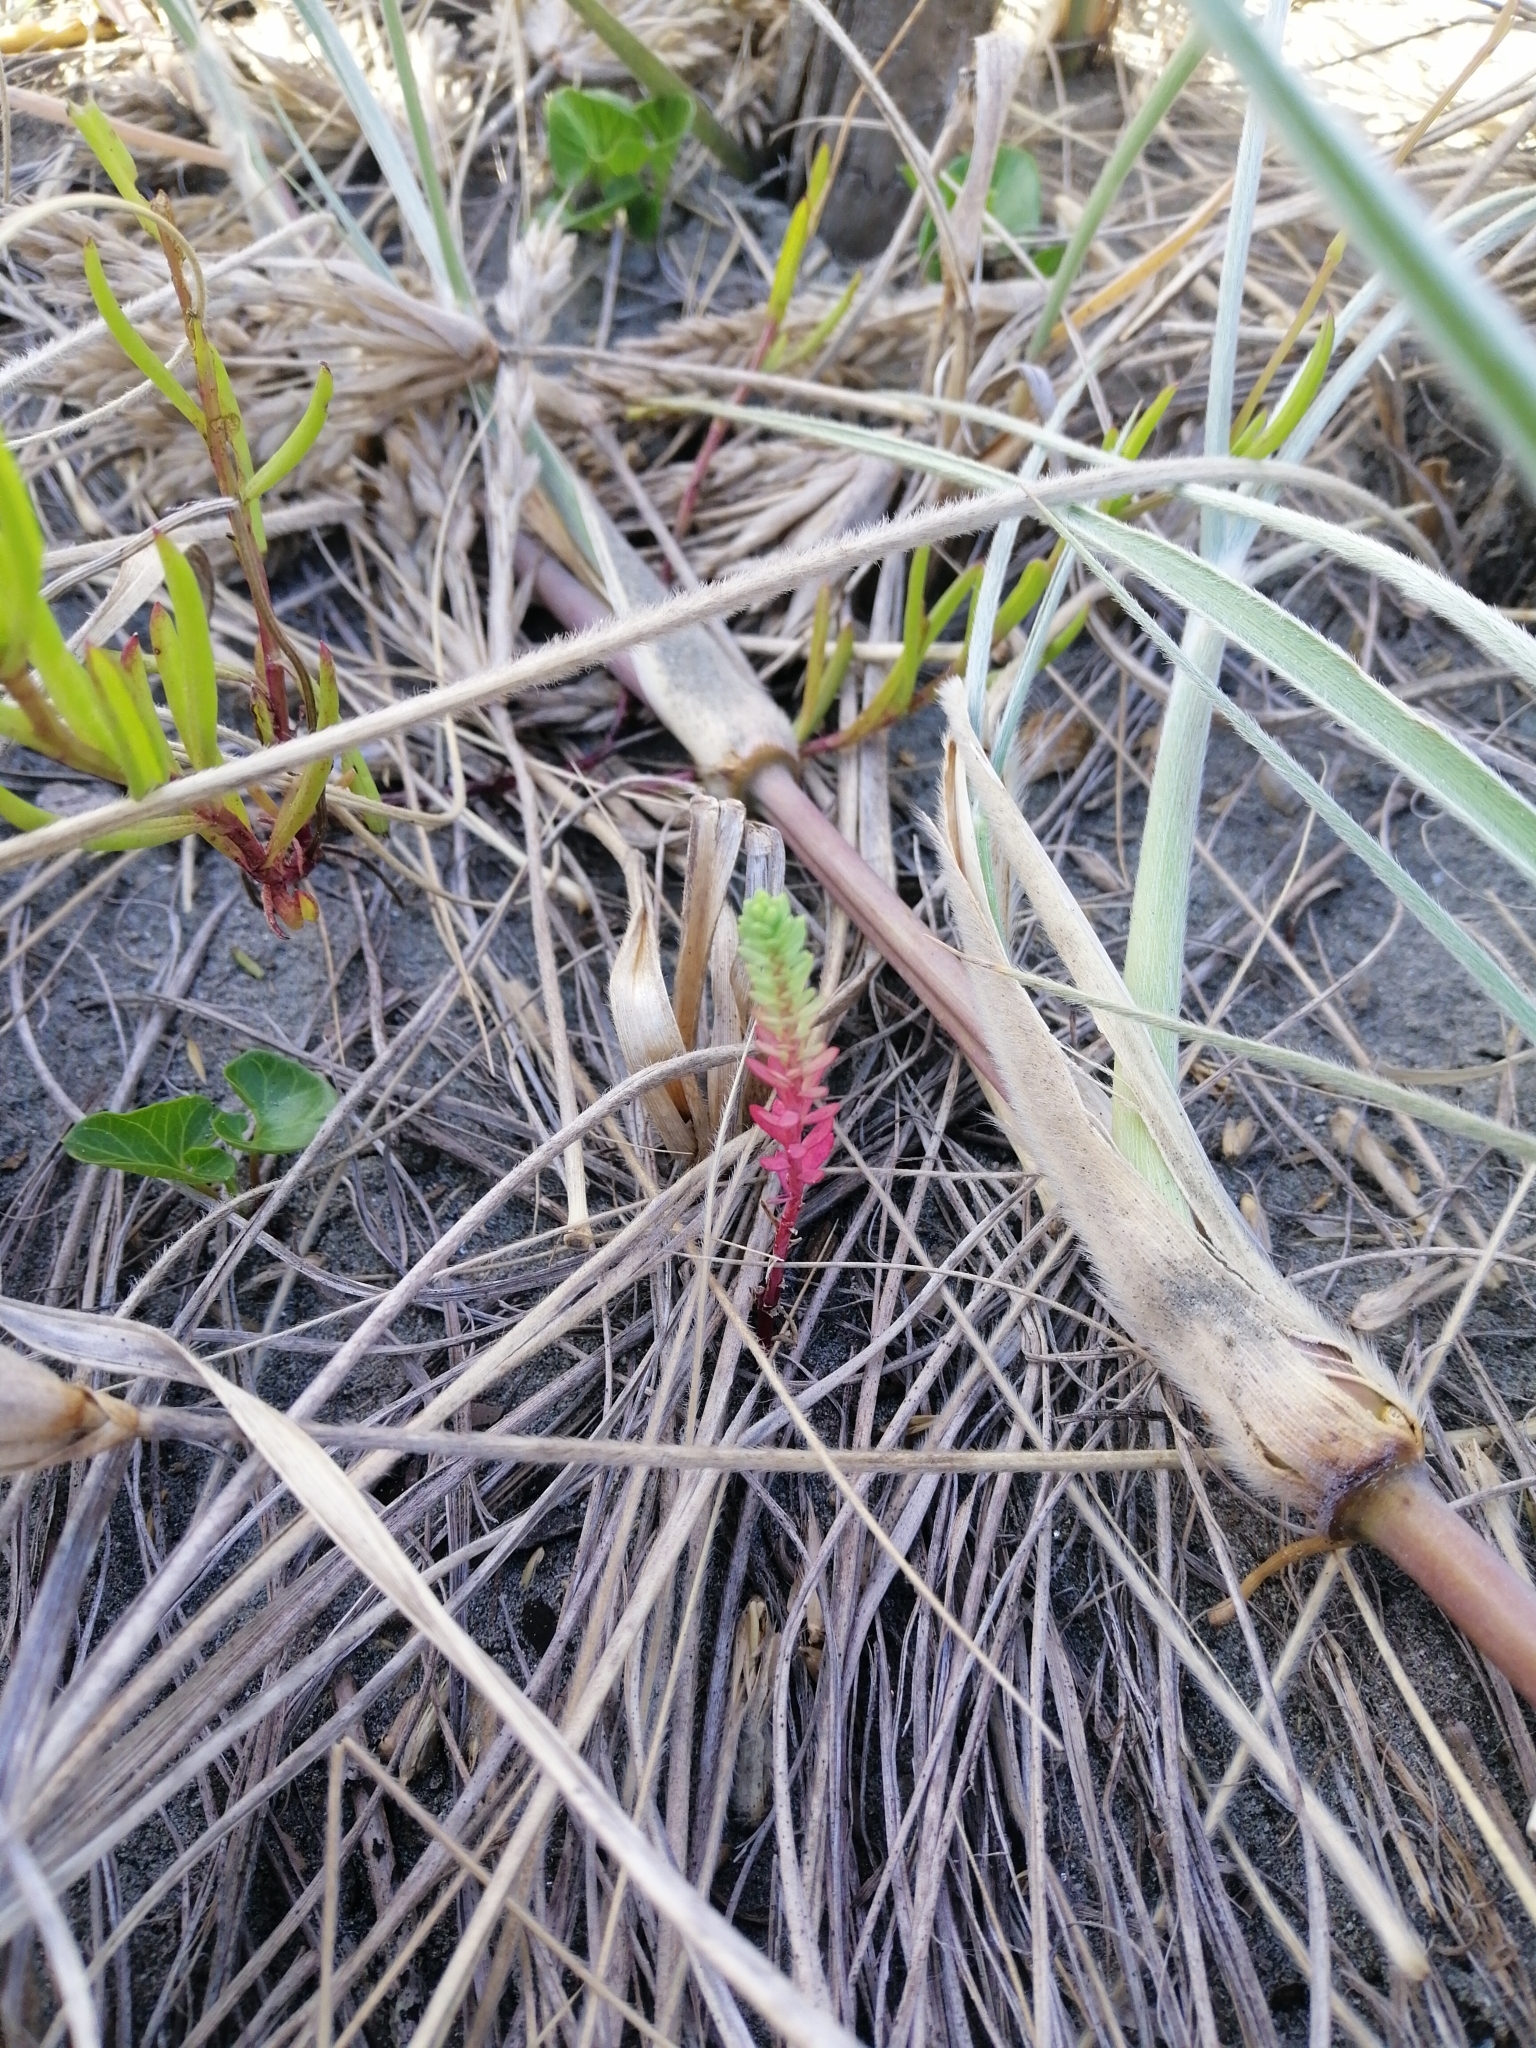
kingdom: Plantae
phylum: Tracheophyta
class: Magnoliopsida
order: Malpighiales
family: Euphorbiaceae
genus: Euphorbia
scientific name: Euphorbia paralias
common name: Sea spurge
